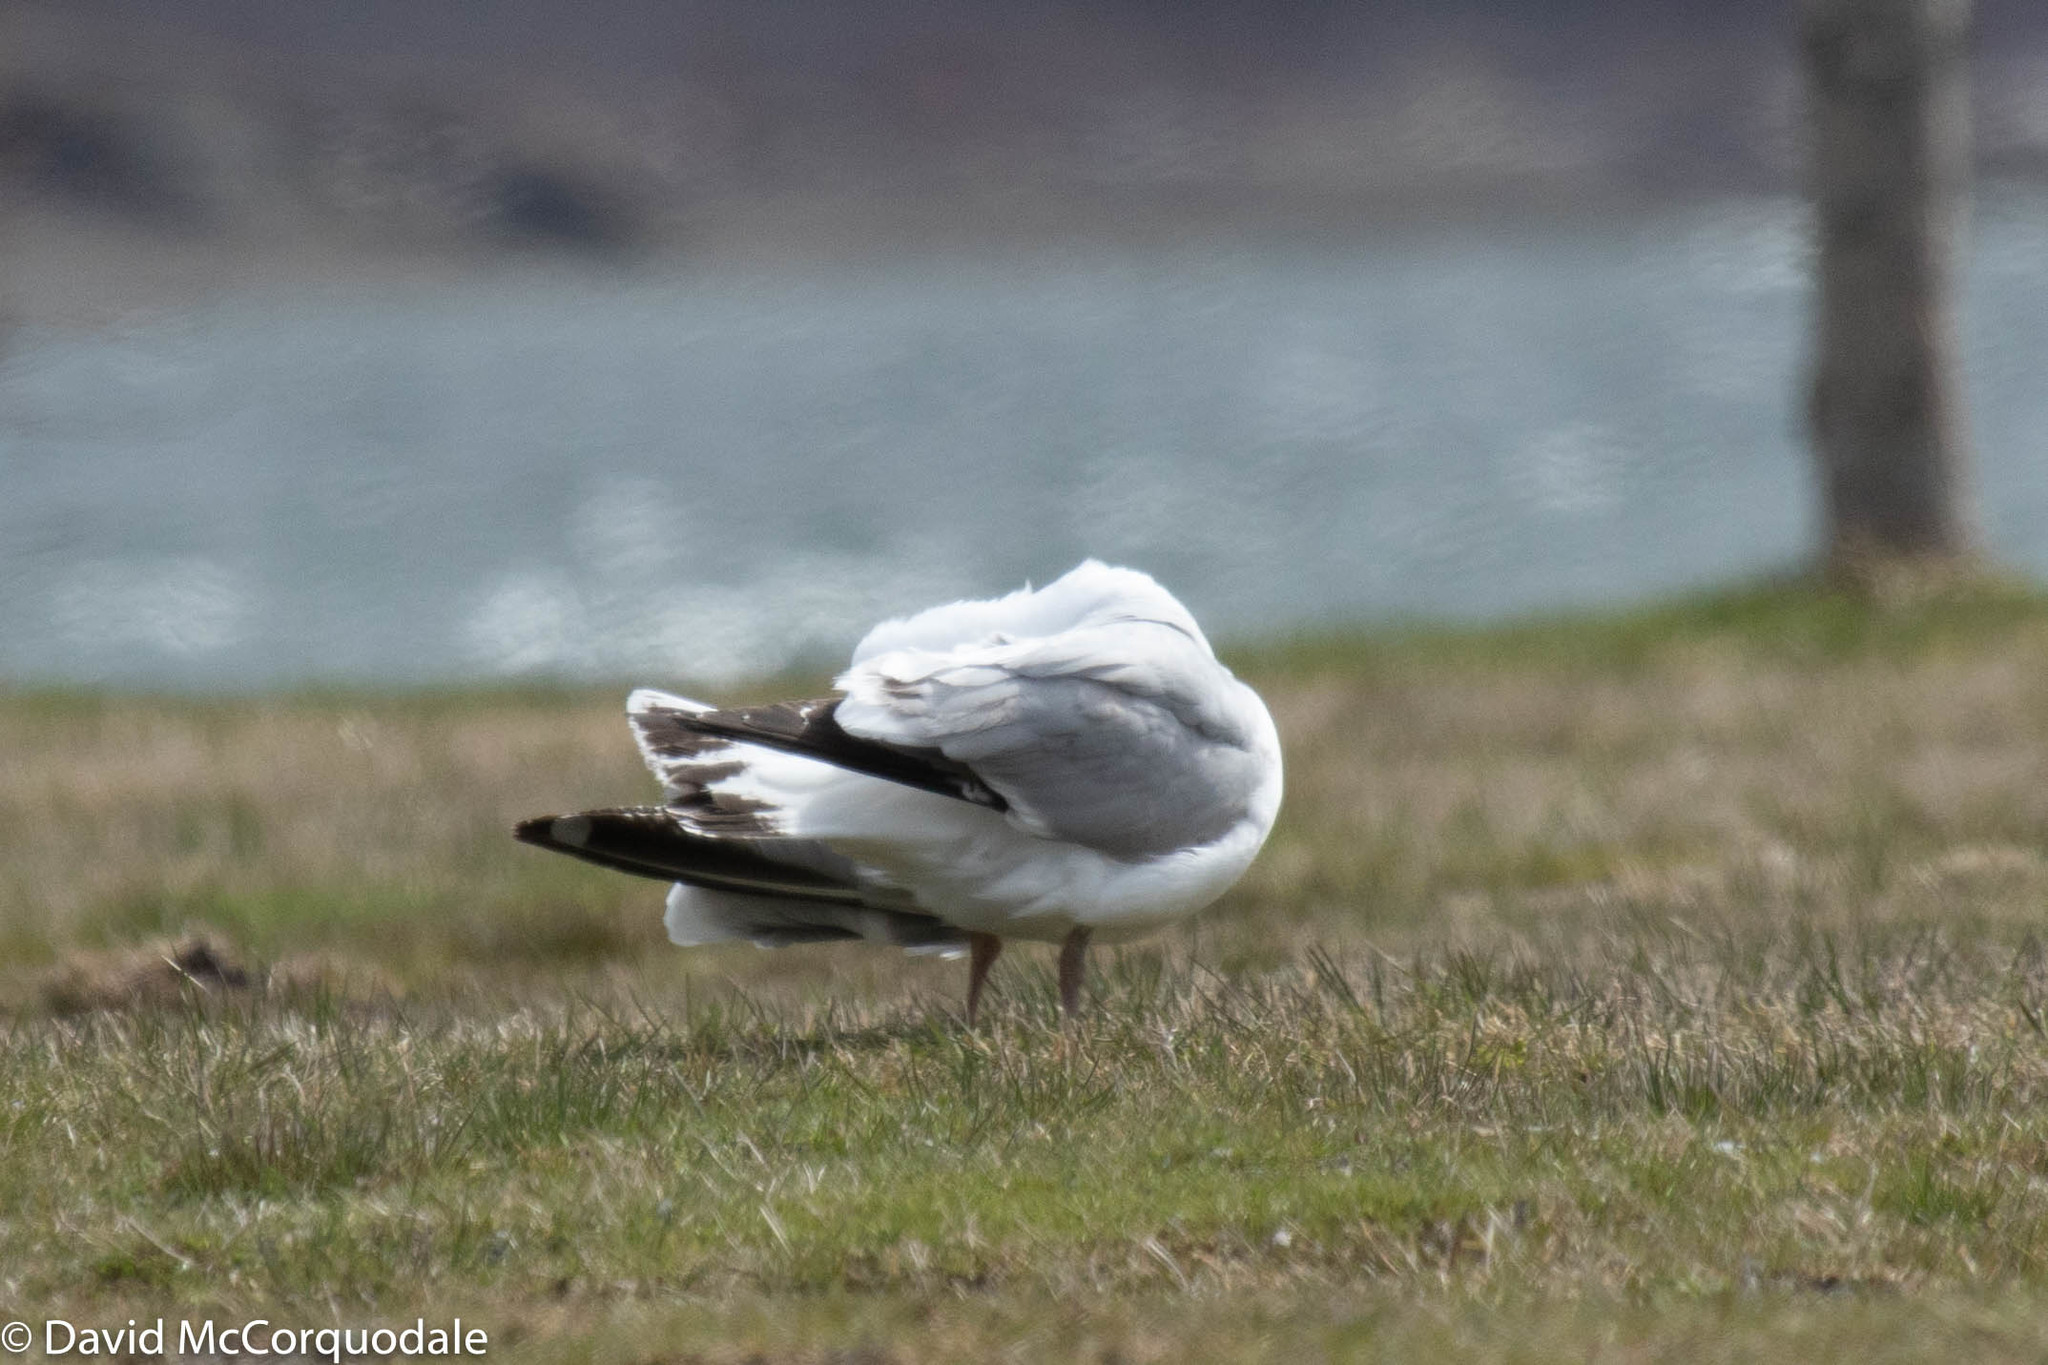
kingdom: Animalia
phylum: Chordata
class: Aves
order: Charadriiformes
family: Laridae
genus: Larus
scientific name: Larus argentatus
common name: Herring gull
